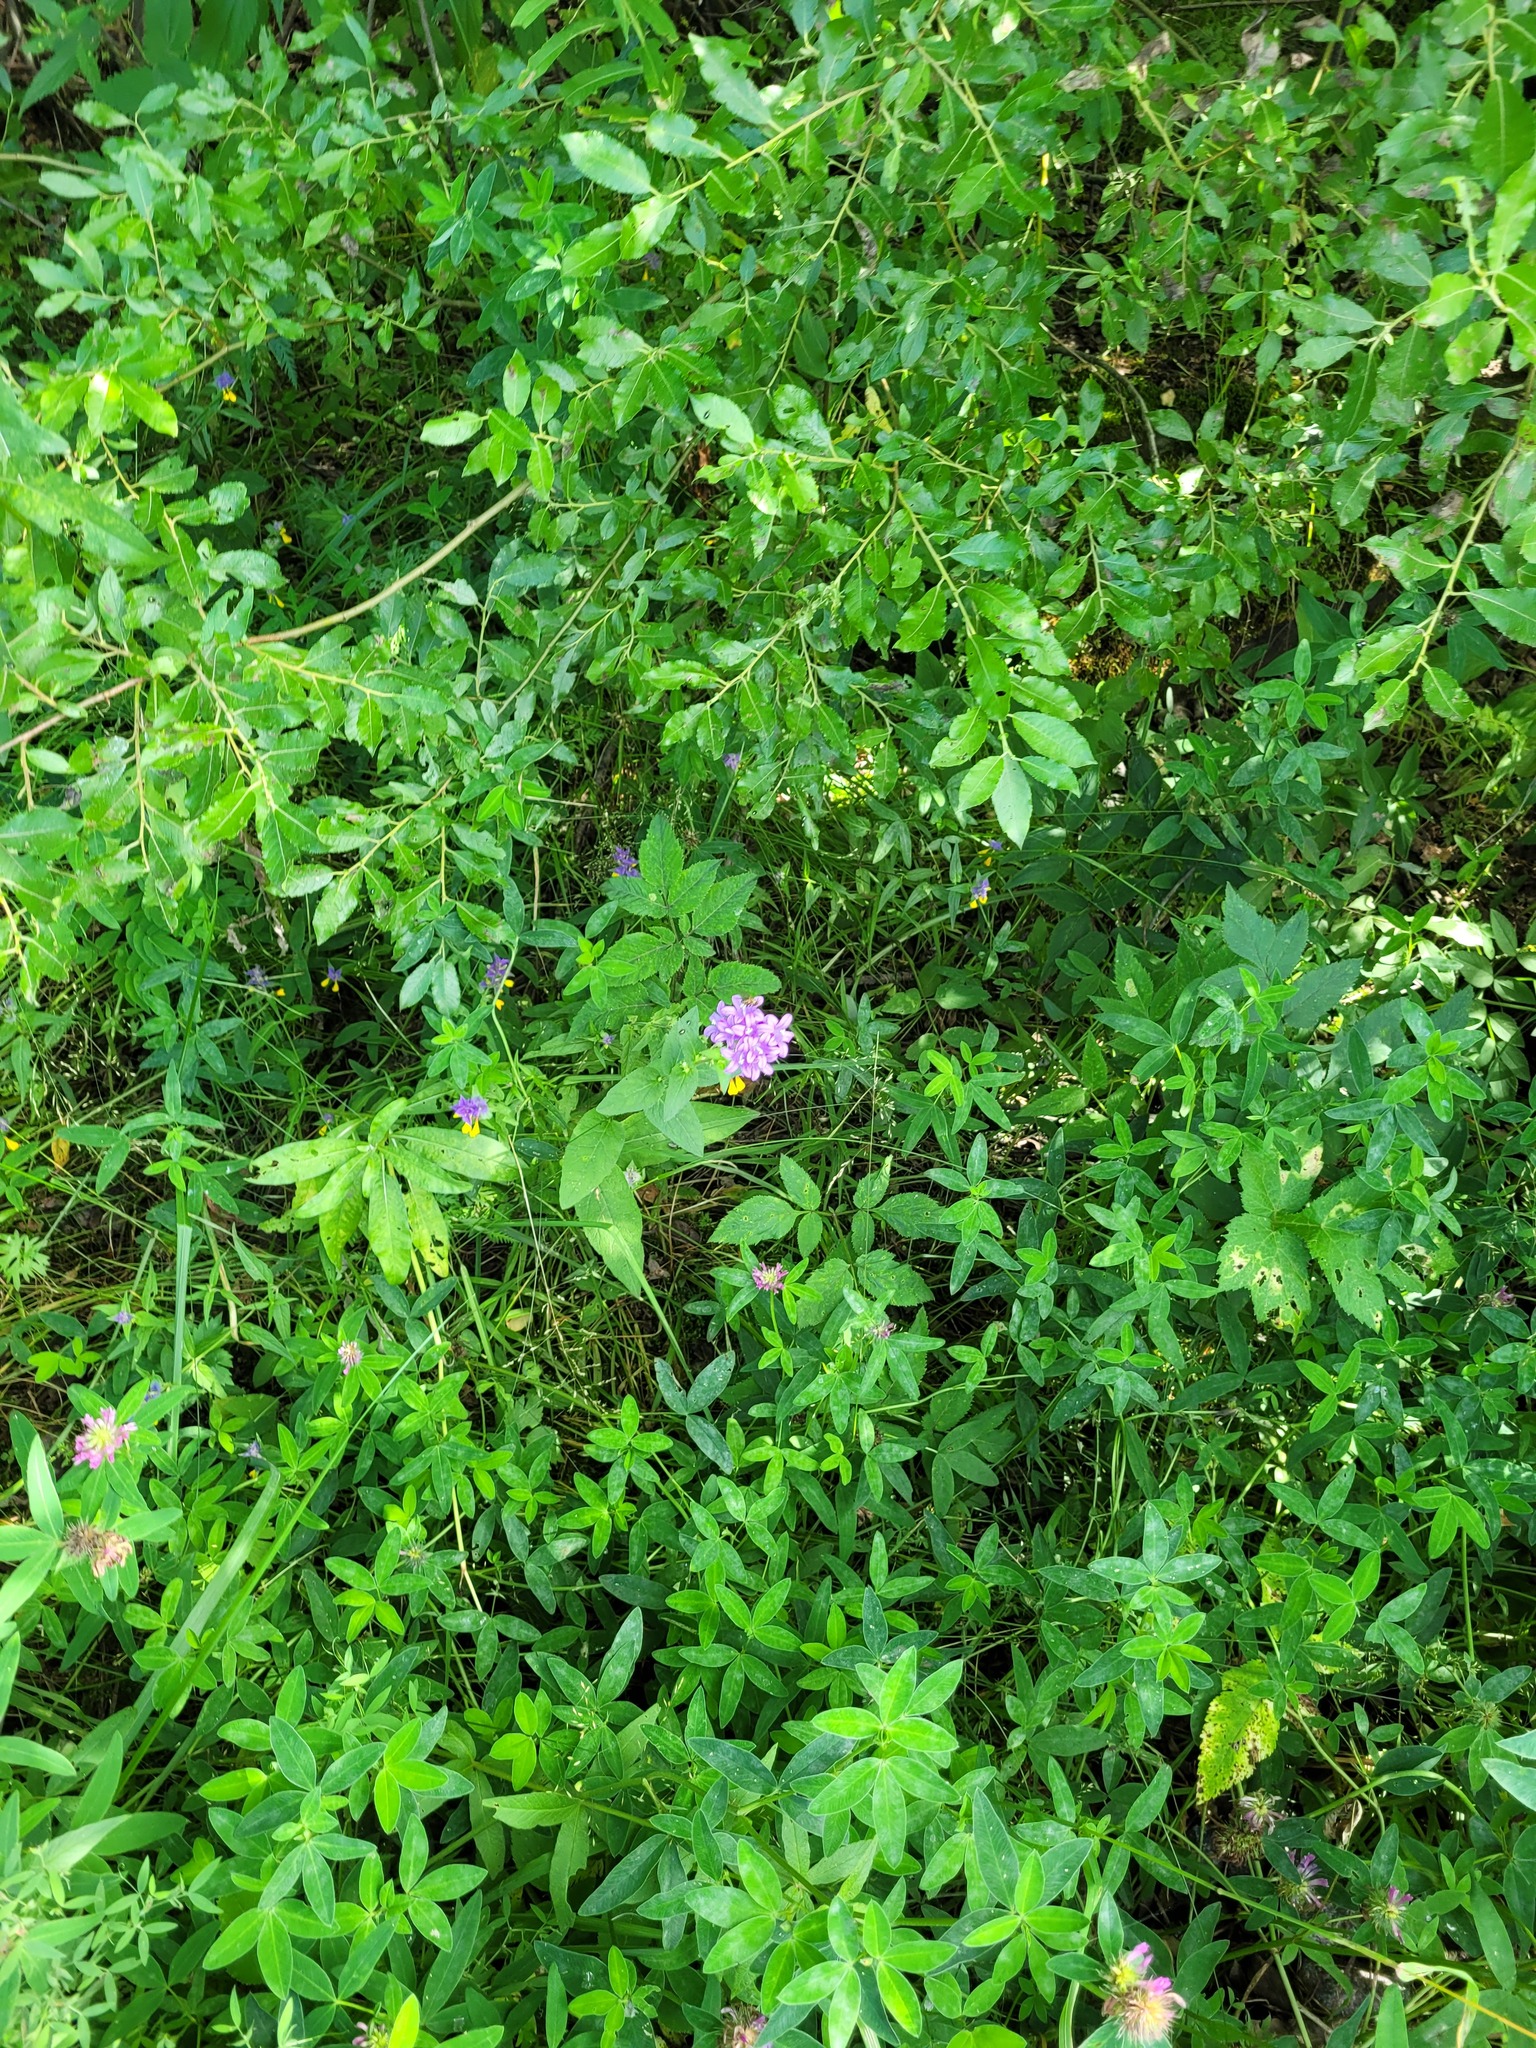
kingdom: Plantae
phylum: Tracheophyta
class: Magnoliopsida
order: Asterales
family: Campanulaceae
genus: Campanula
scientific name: Campanula glomerata
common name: Clustered bellflower
